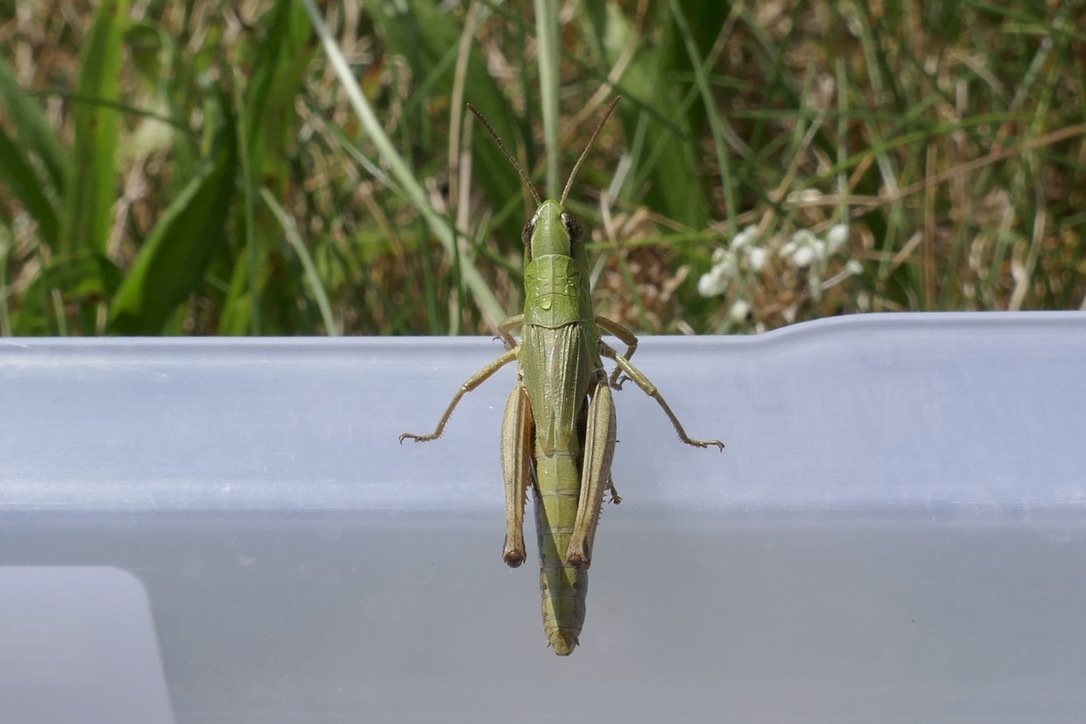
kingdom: Animalia
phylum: Arthropoda
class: Insecta
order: Orthoptera
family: Acrididae
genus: Pseudochorthippus
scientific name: Pseudochorthippus parallelus
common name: Meadow grasshopper
